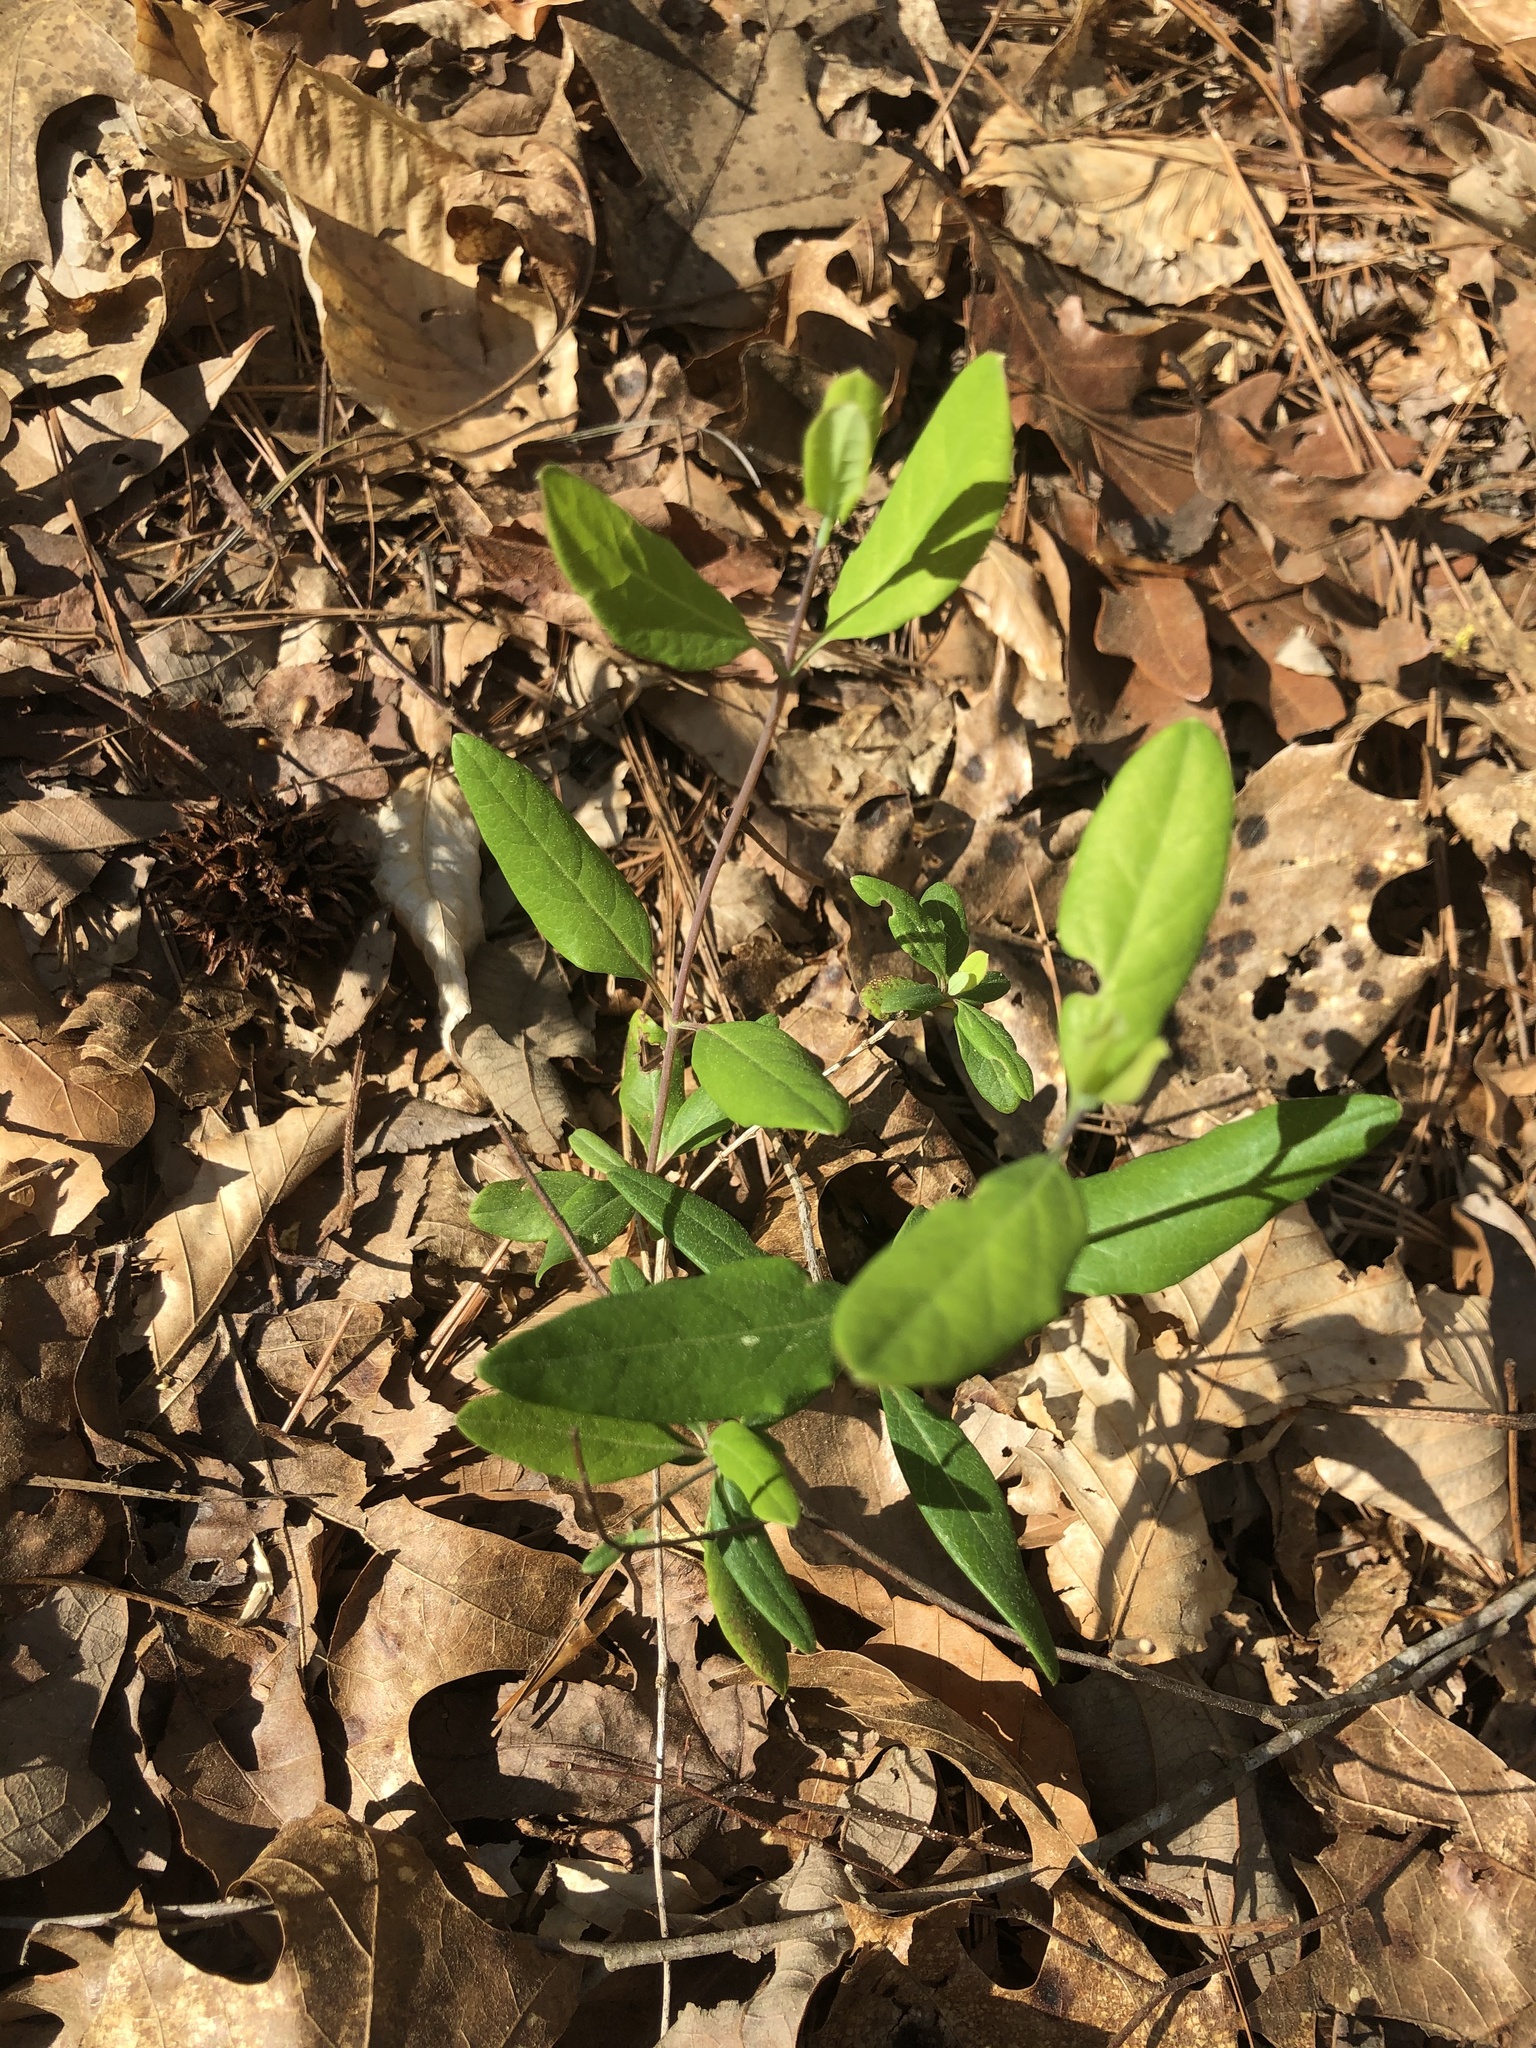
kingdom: Plantae
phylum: Tracheophyta
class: Magnoliopsida
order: Dipsacales
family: Caprifoliaceae
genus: Lonicera
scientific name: Lonicera sempervirens
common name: Coral honeysuckle
